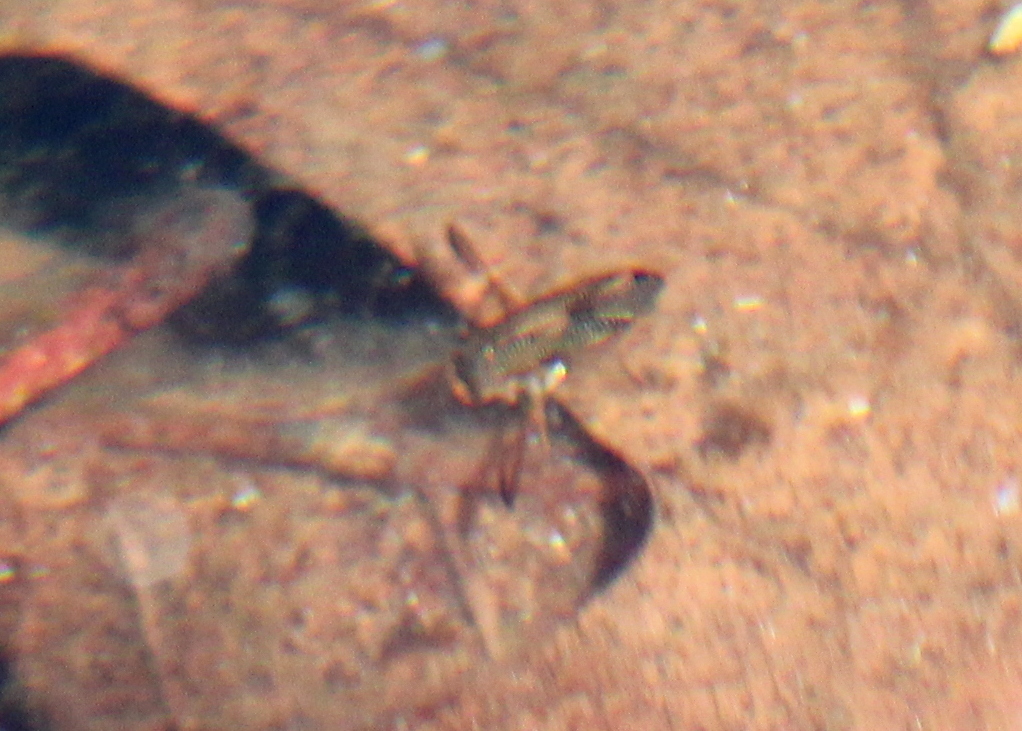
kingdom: Animalia
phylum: Arthropoda
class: Insecta
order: Hemiptera
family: Corixidae
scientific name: Corixidae
